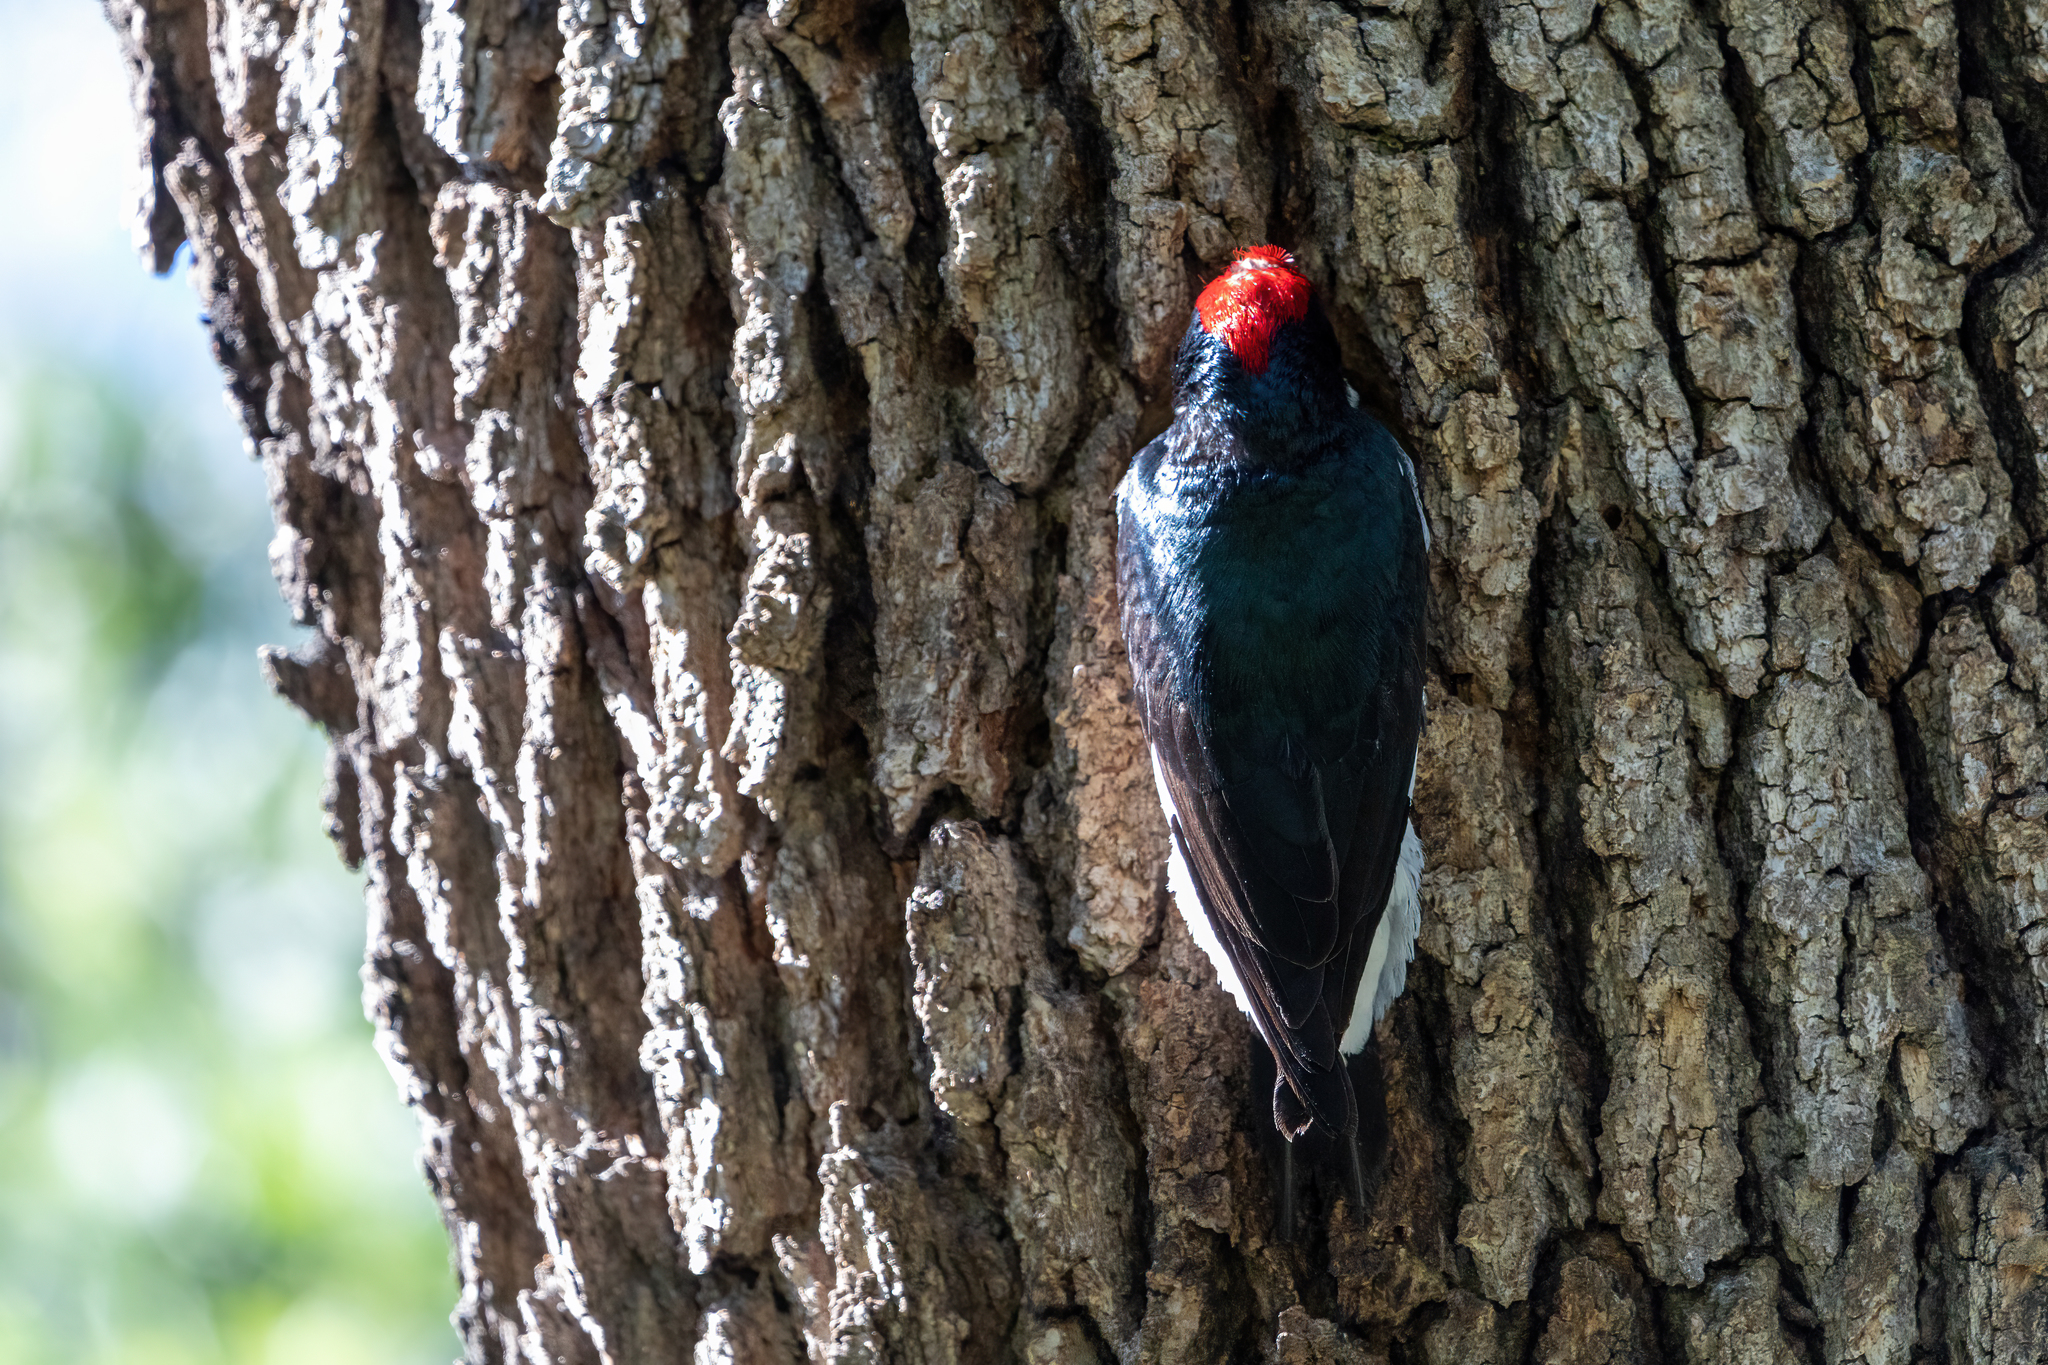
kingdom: Animalia
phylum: Chordata
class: Aves
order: Piciformes
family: Picidae
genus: Melanerpes
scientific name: Melanerpes formicivorus
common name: Acorn woodpecker
